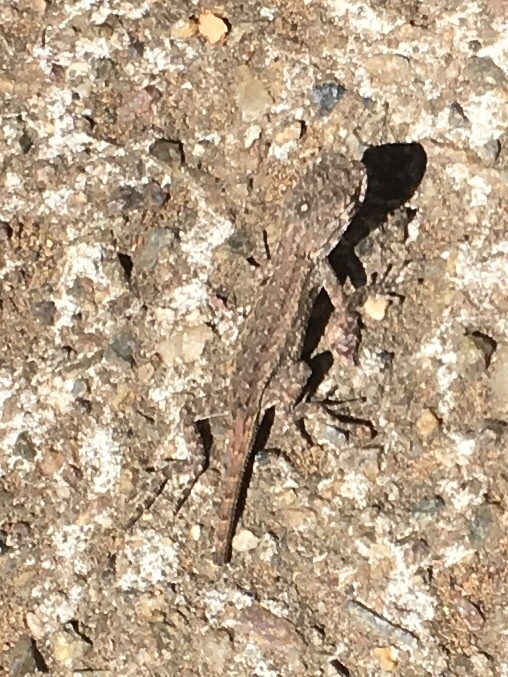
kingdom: Animalia
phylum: Chordata
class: Squamata
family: Phrynosomatidae
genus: Sceloporus
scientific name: Sceloporus occidentalis
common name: Western fence lizard
